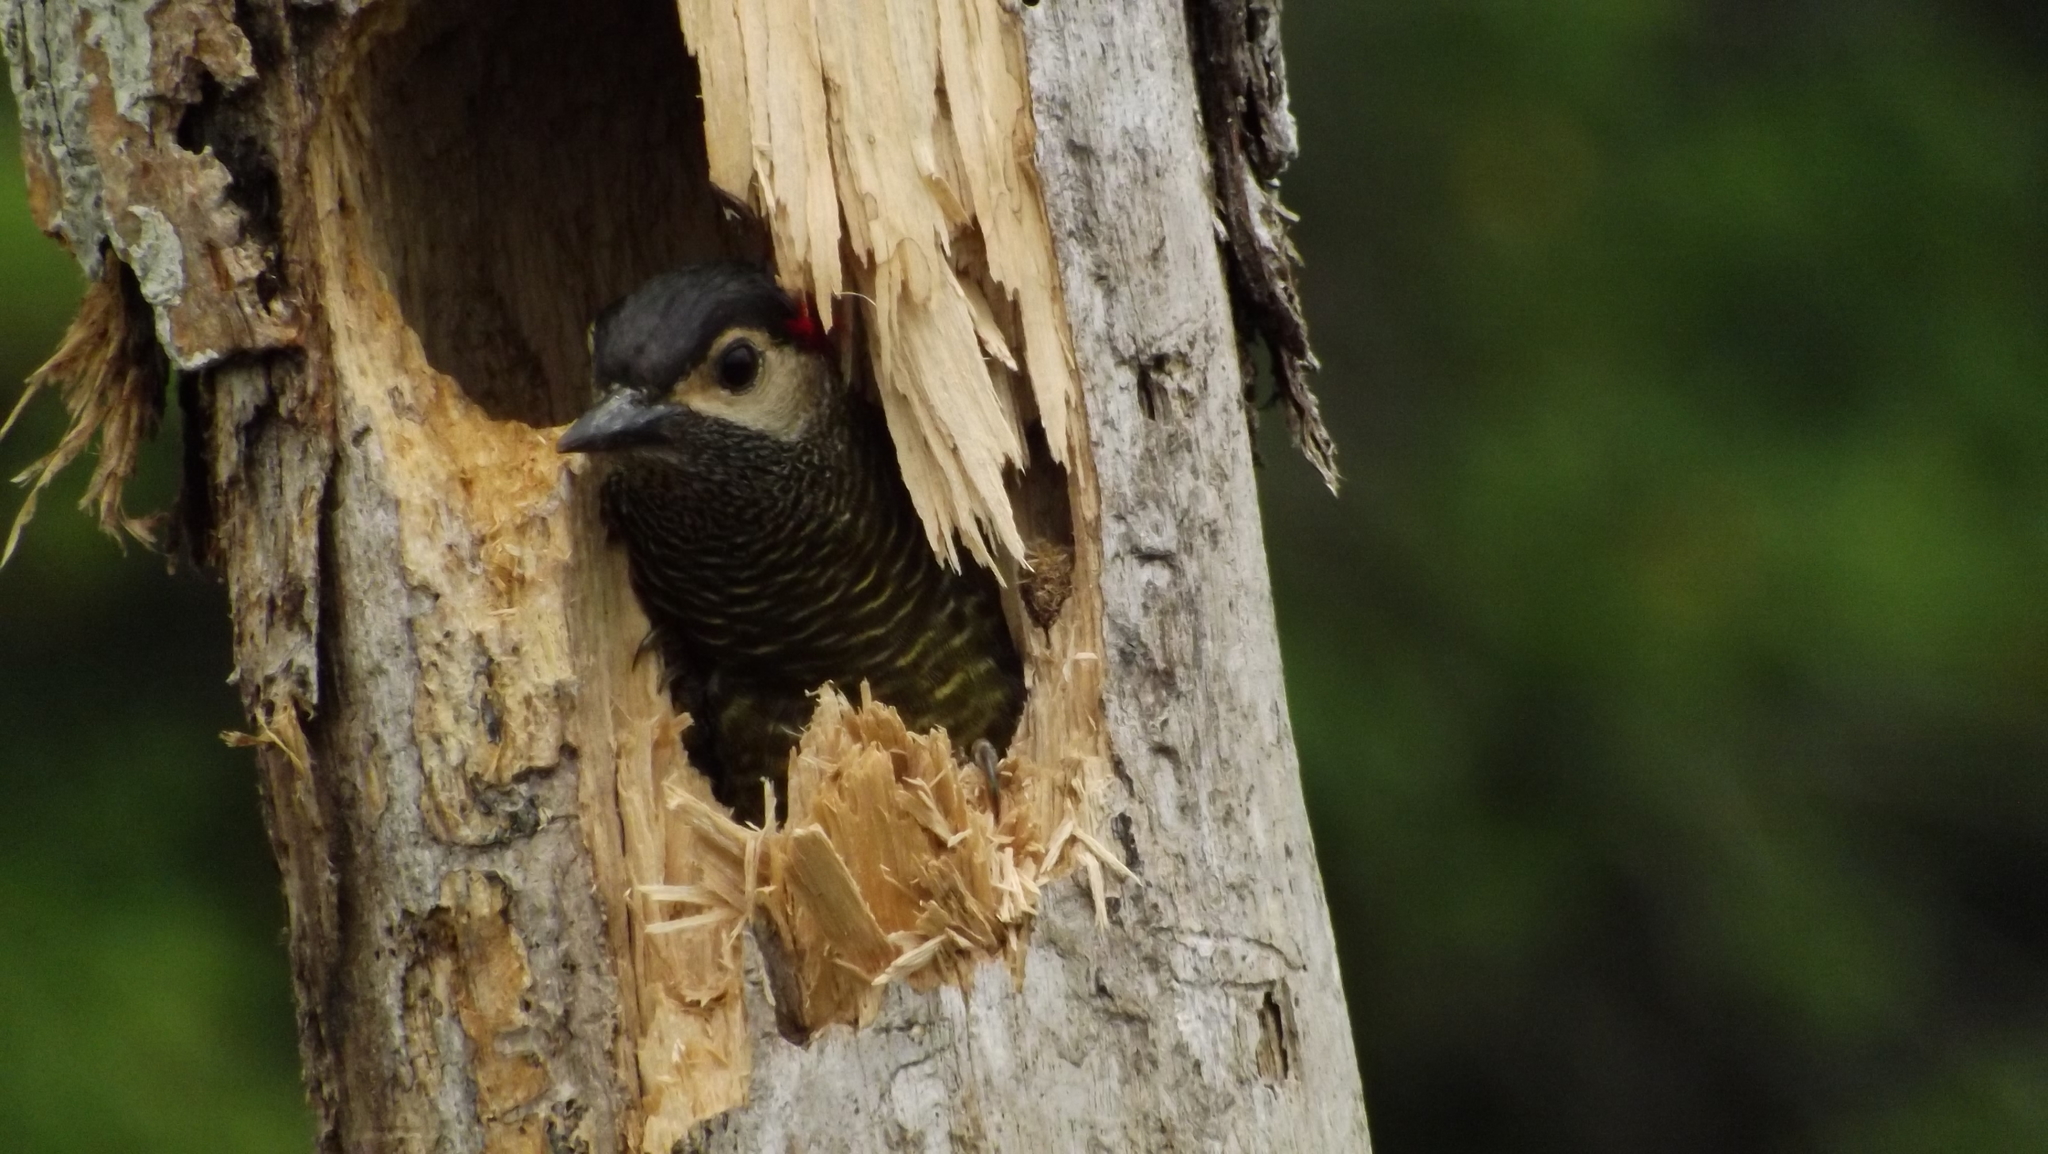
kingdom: Animalia
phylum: Chordata
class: Aves
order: Piciformes
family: Picidae
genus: Colaptes
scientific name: Colaptes rubiginosus
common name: Golden-olive woodpecker
